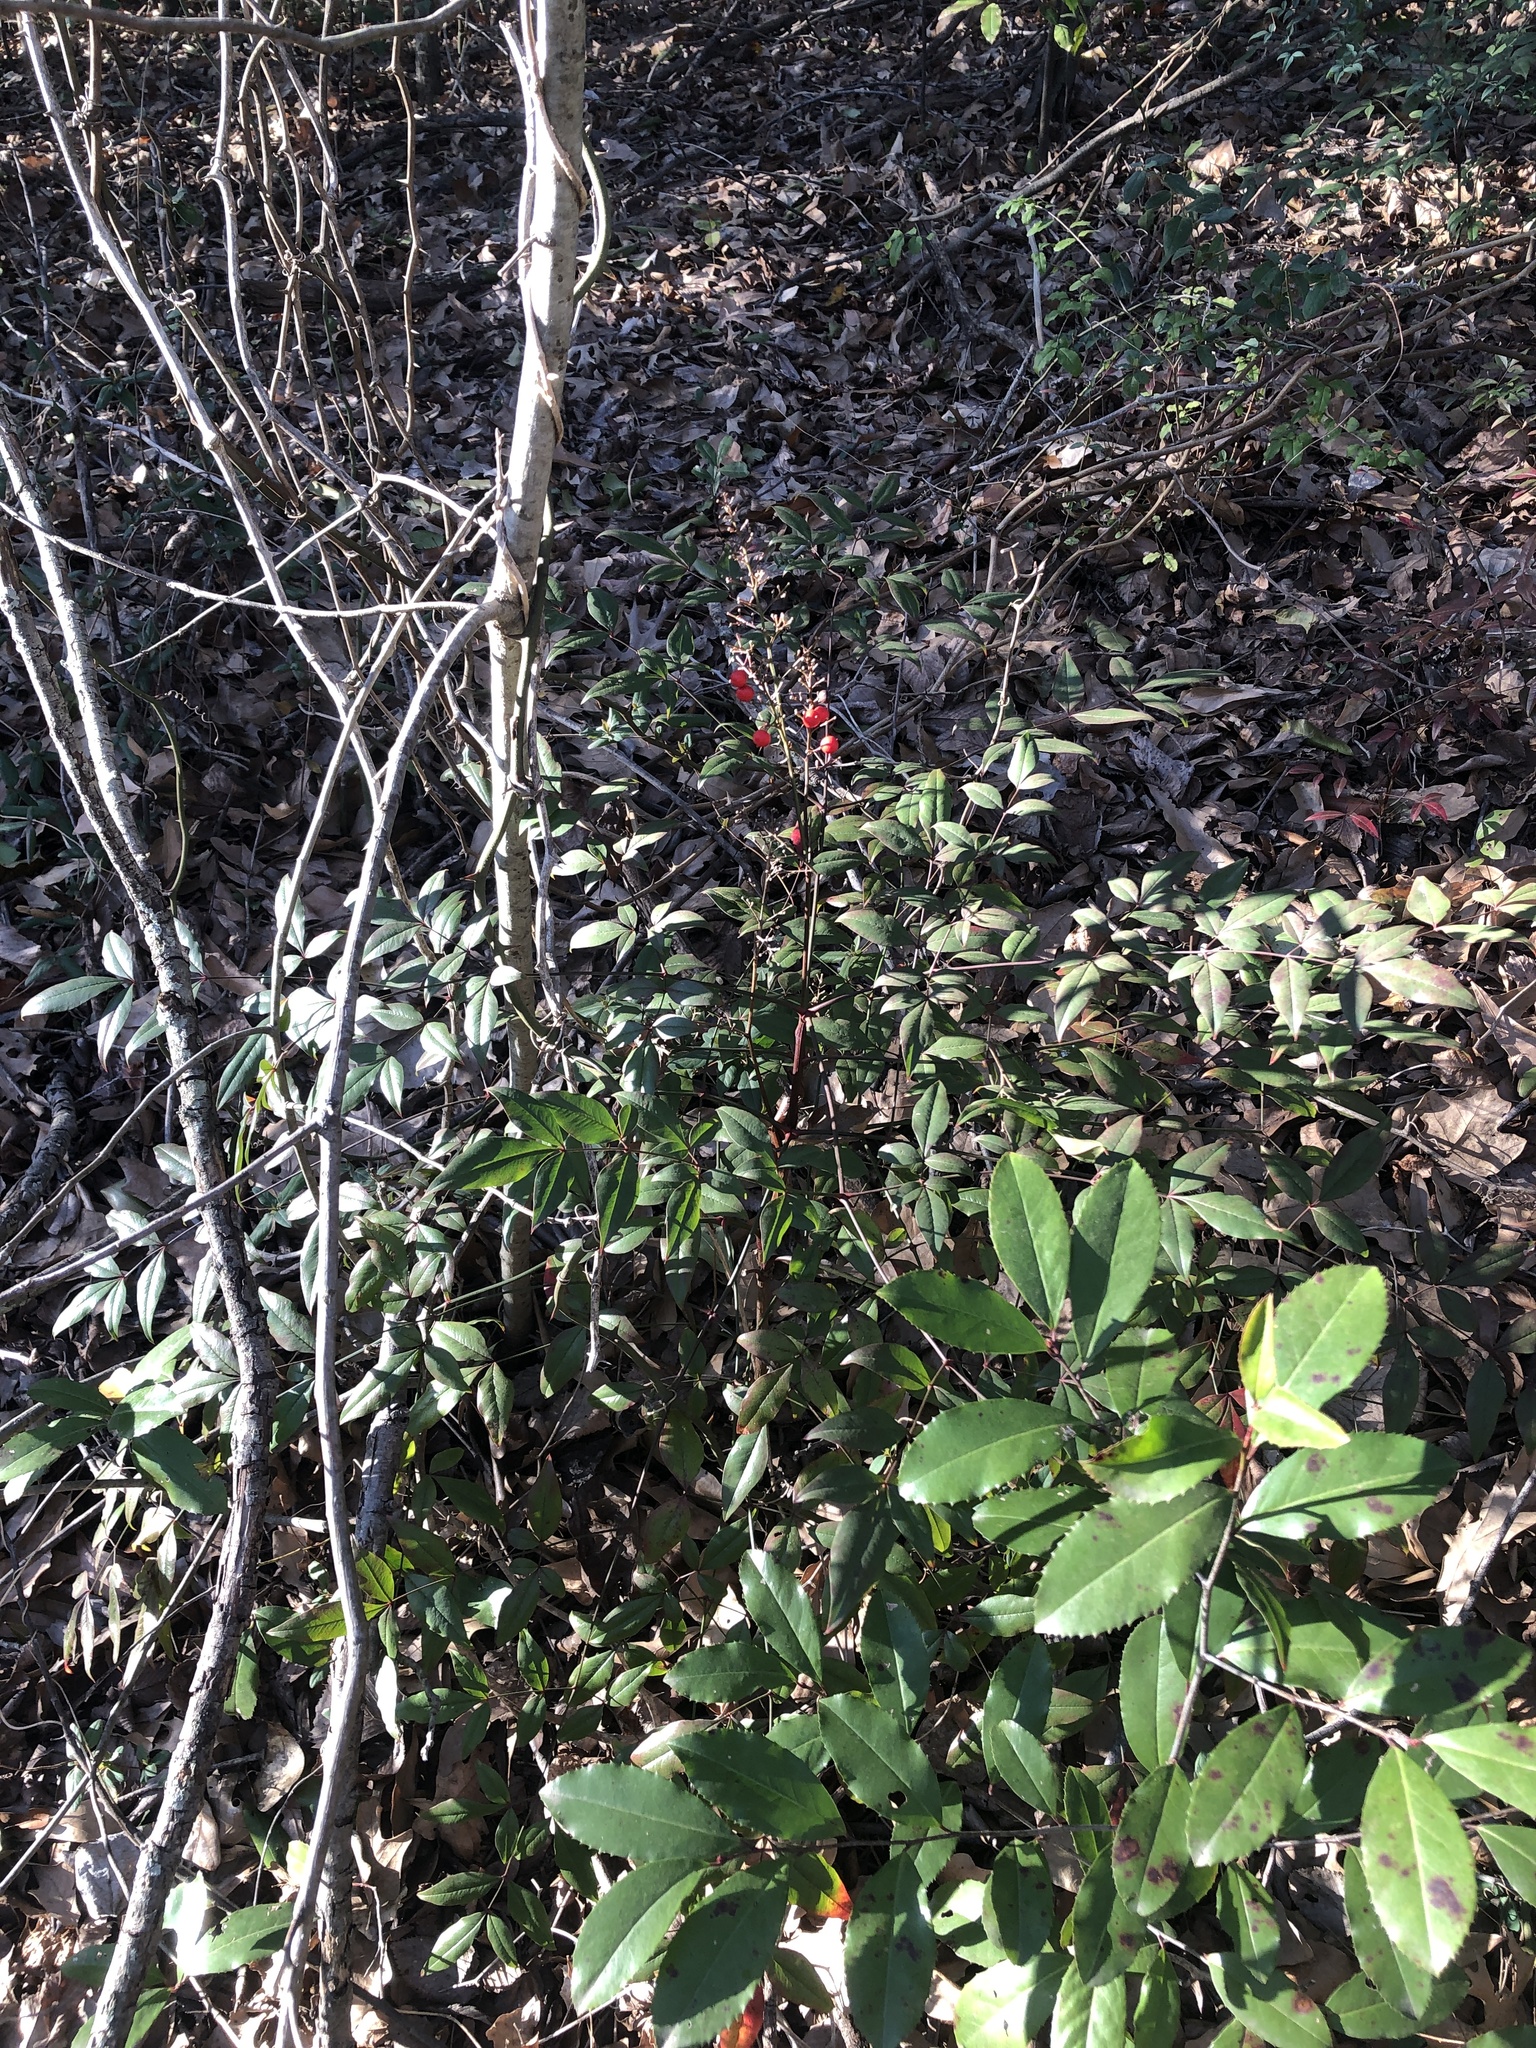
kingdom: Plantae
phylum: Tracheophyta
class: Magnoliopsida
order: Ranunculales
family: Berberidaceae
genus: Nandina
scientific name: Nandina domestica
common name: Sacred bamboo
